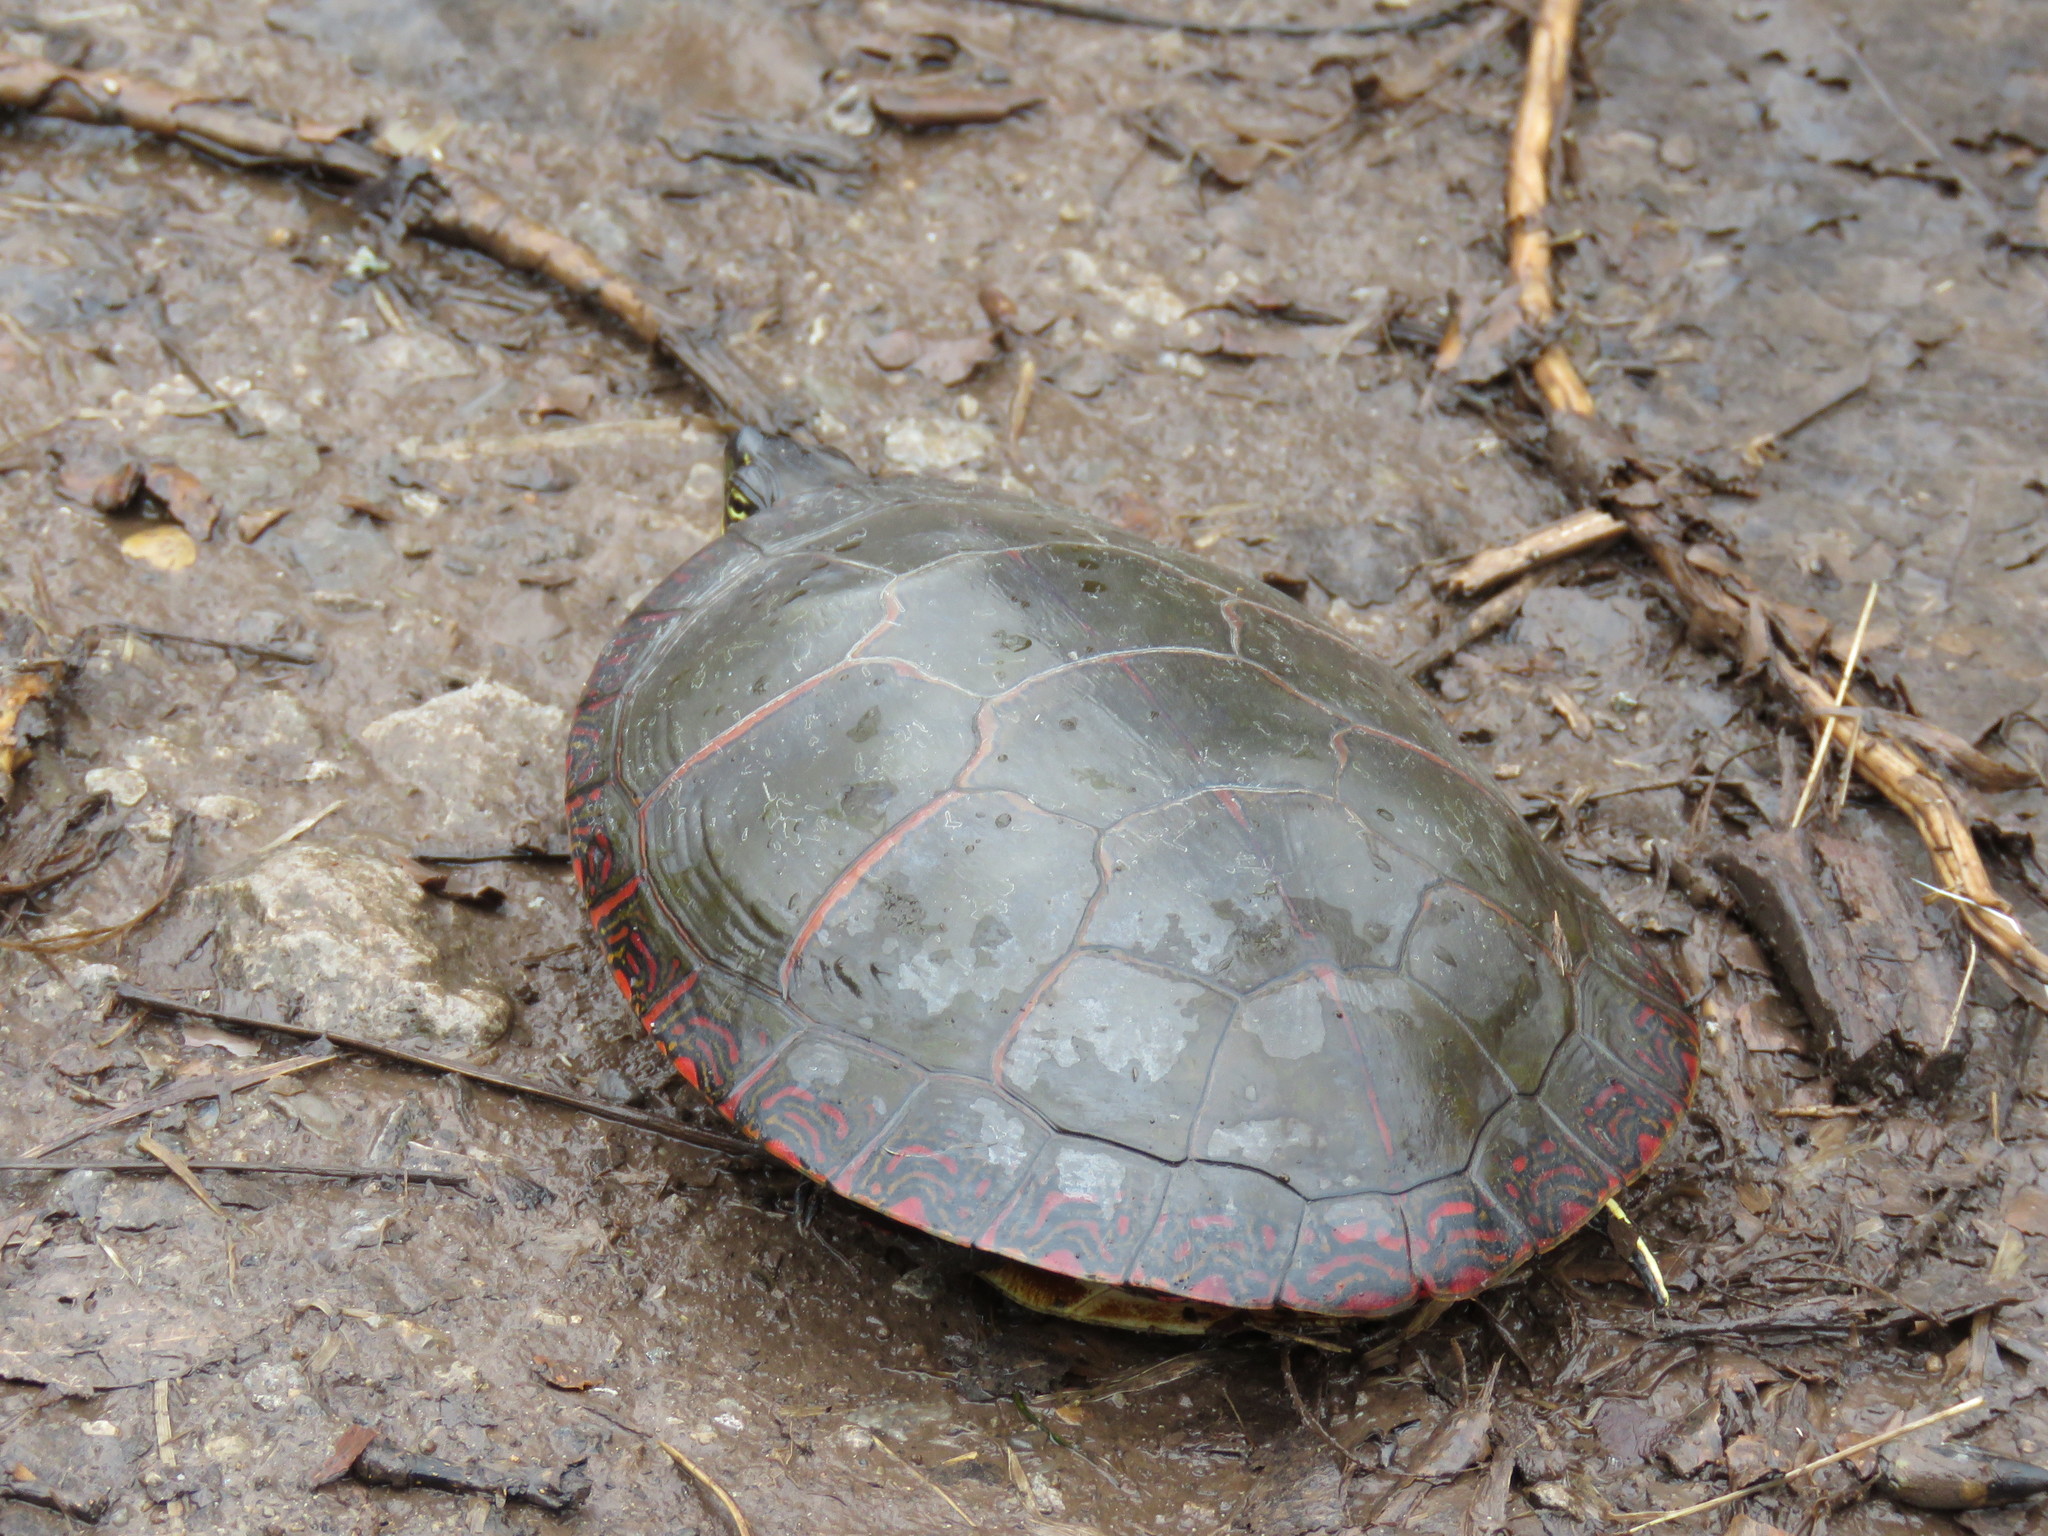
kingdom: Animalia
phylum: Chordata
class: Testudines
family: Emydidae
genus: Chrysemys
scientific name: Chrysemys picta
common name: Painted turtle
